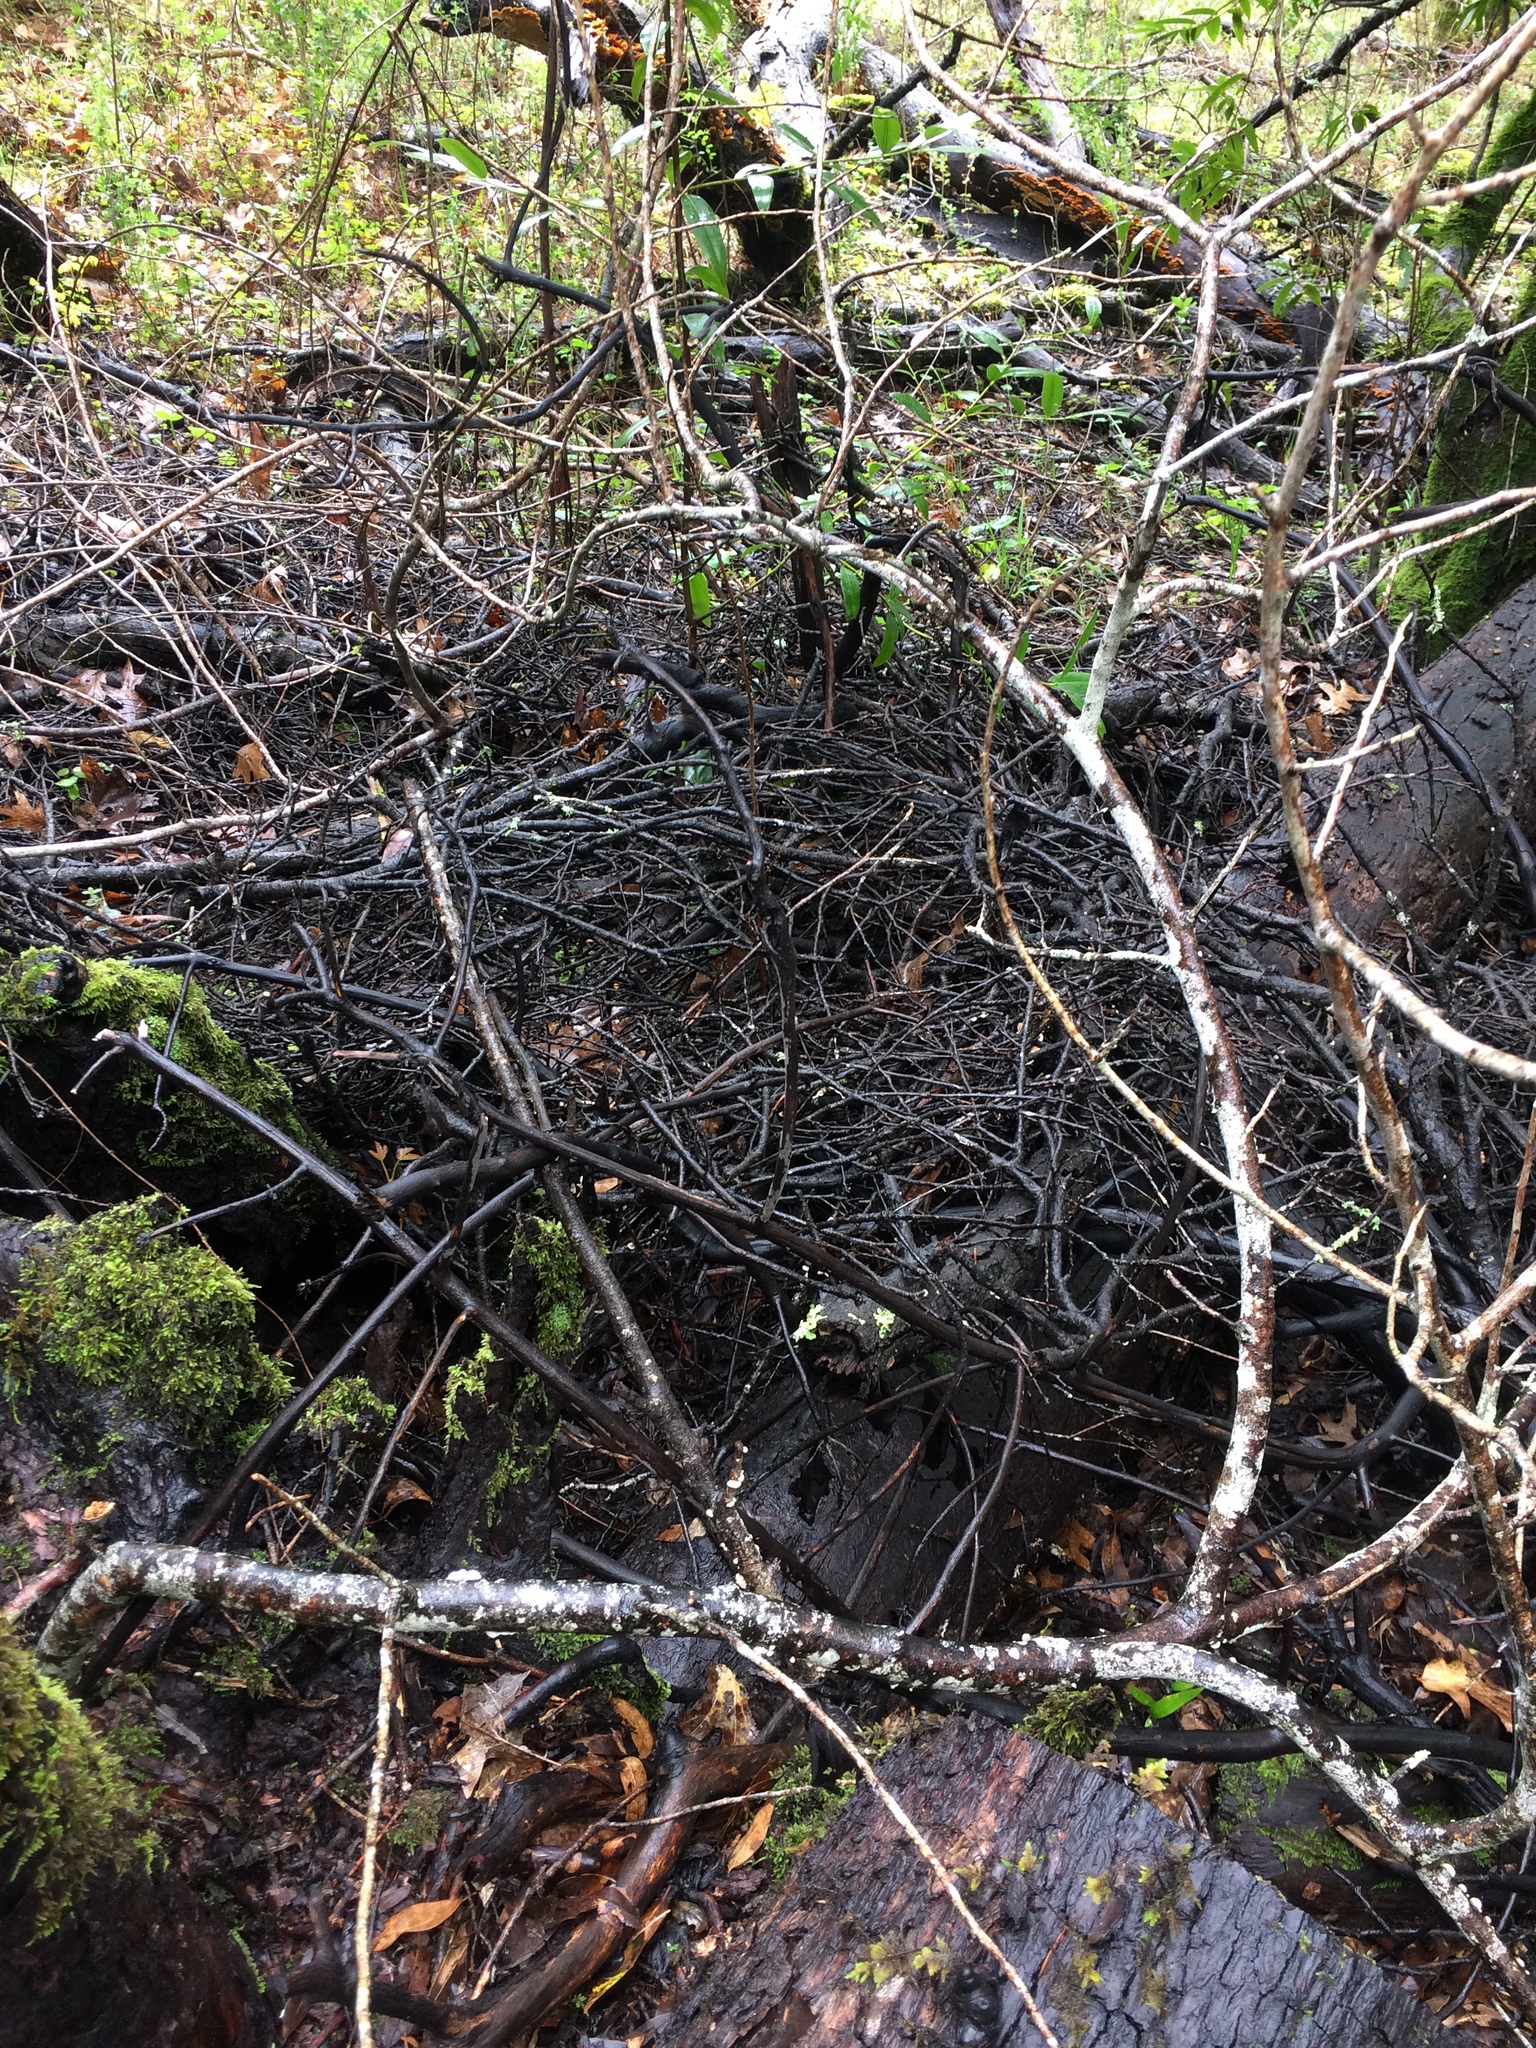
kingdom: Animalia
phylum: Chordata
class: Mammalia
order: Rodentia
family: Cricetidae
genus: Neotoma
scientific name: Neotoma fuscipes
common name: Dusky-footed woodrat
